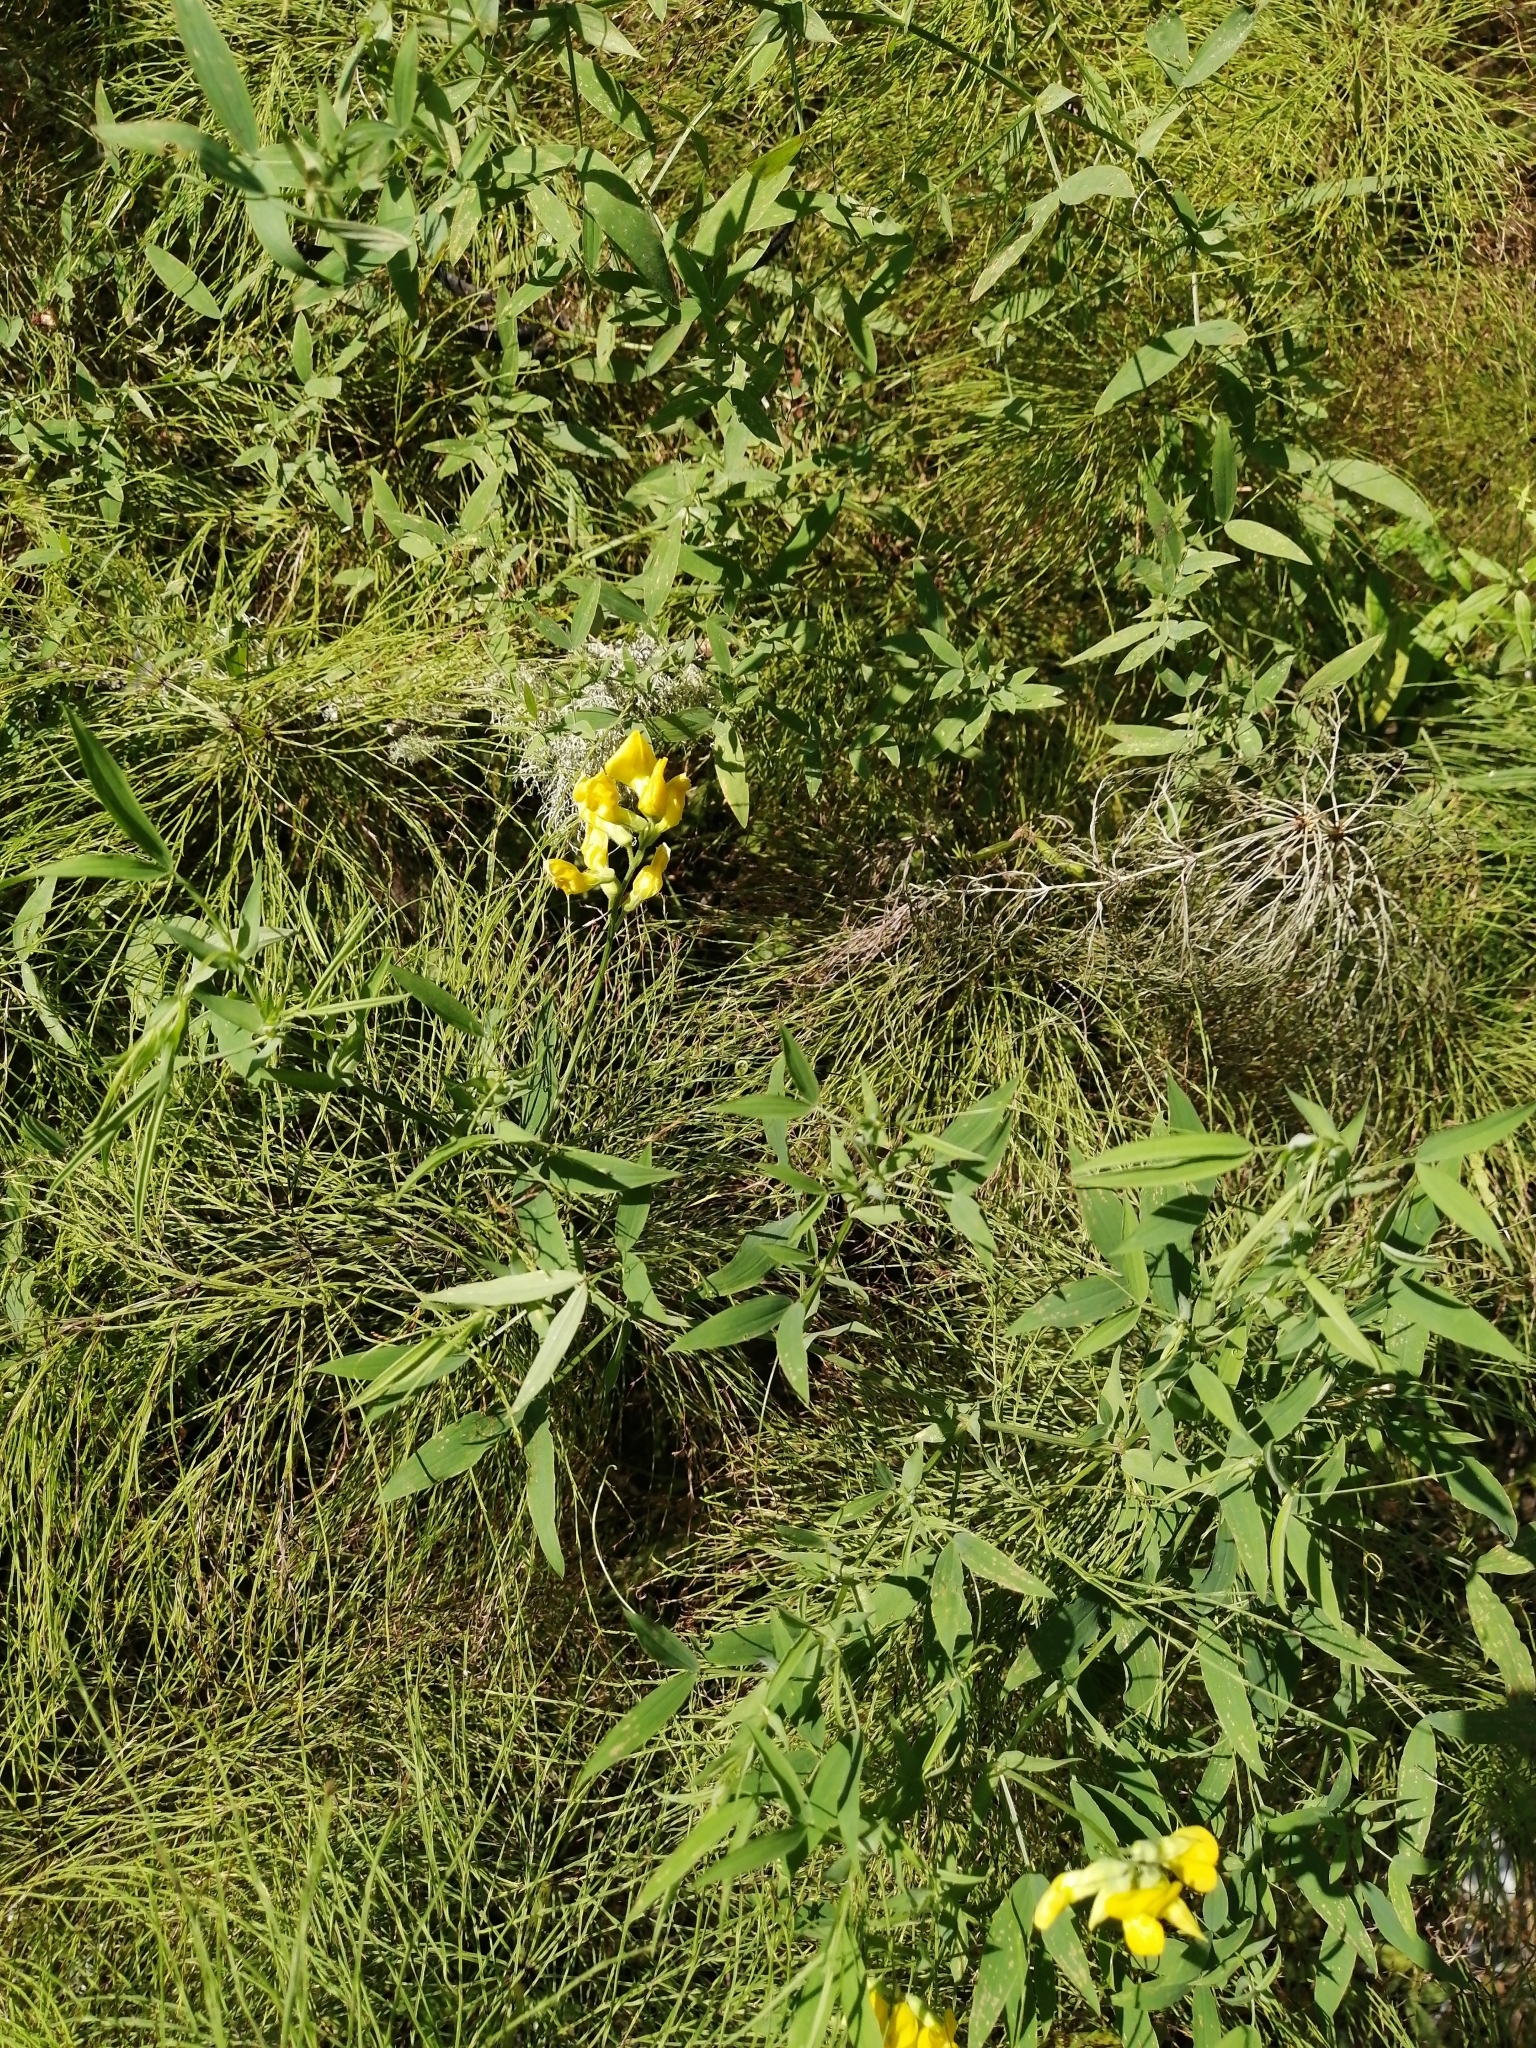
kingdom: Plantae
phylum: Tracheophyta
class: Magnoliopsida
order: Fabales
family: Fabaceae
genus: Lathyrus
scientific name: Lathyrus pratensis
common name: Meadow vetchling
